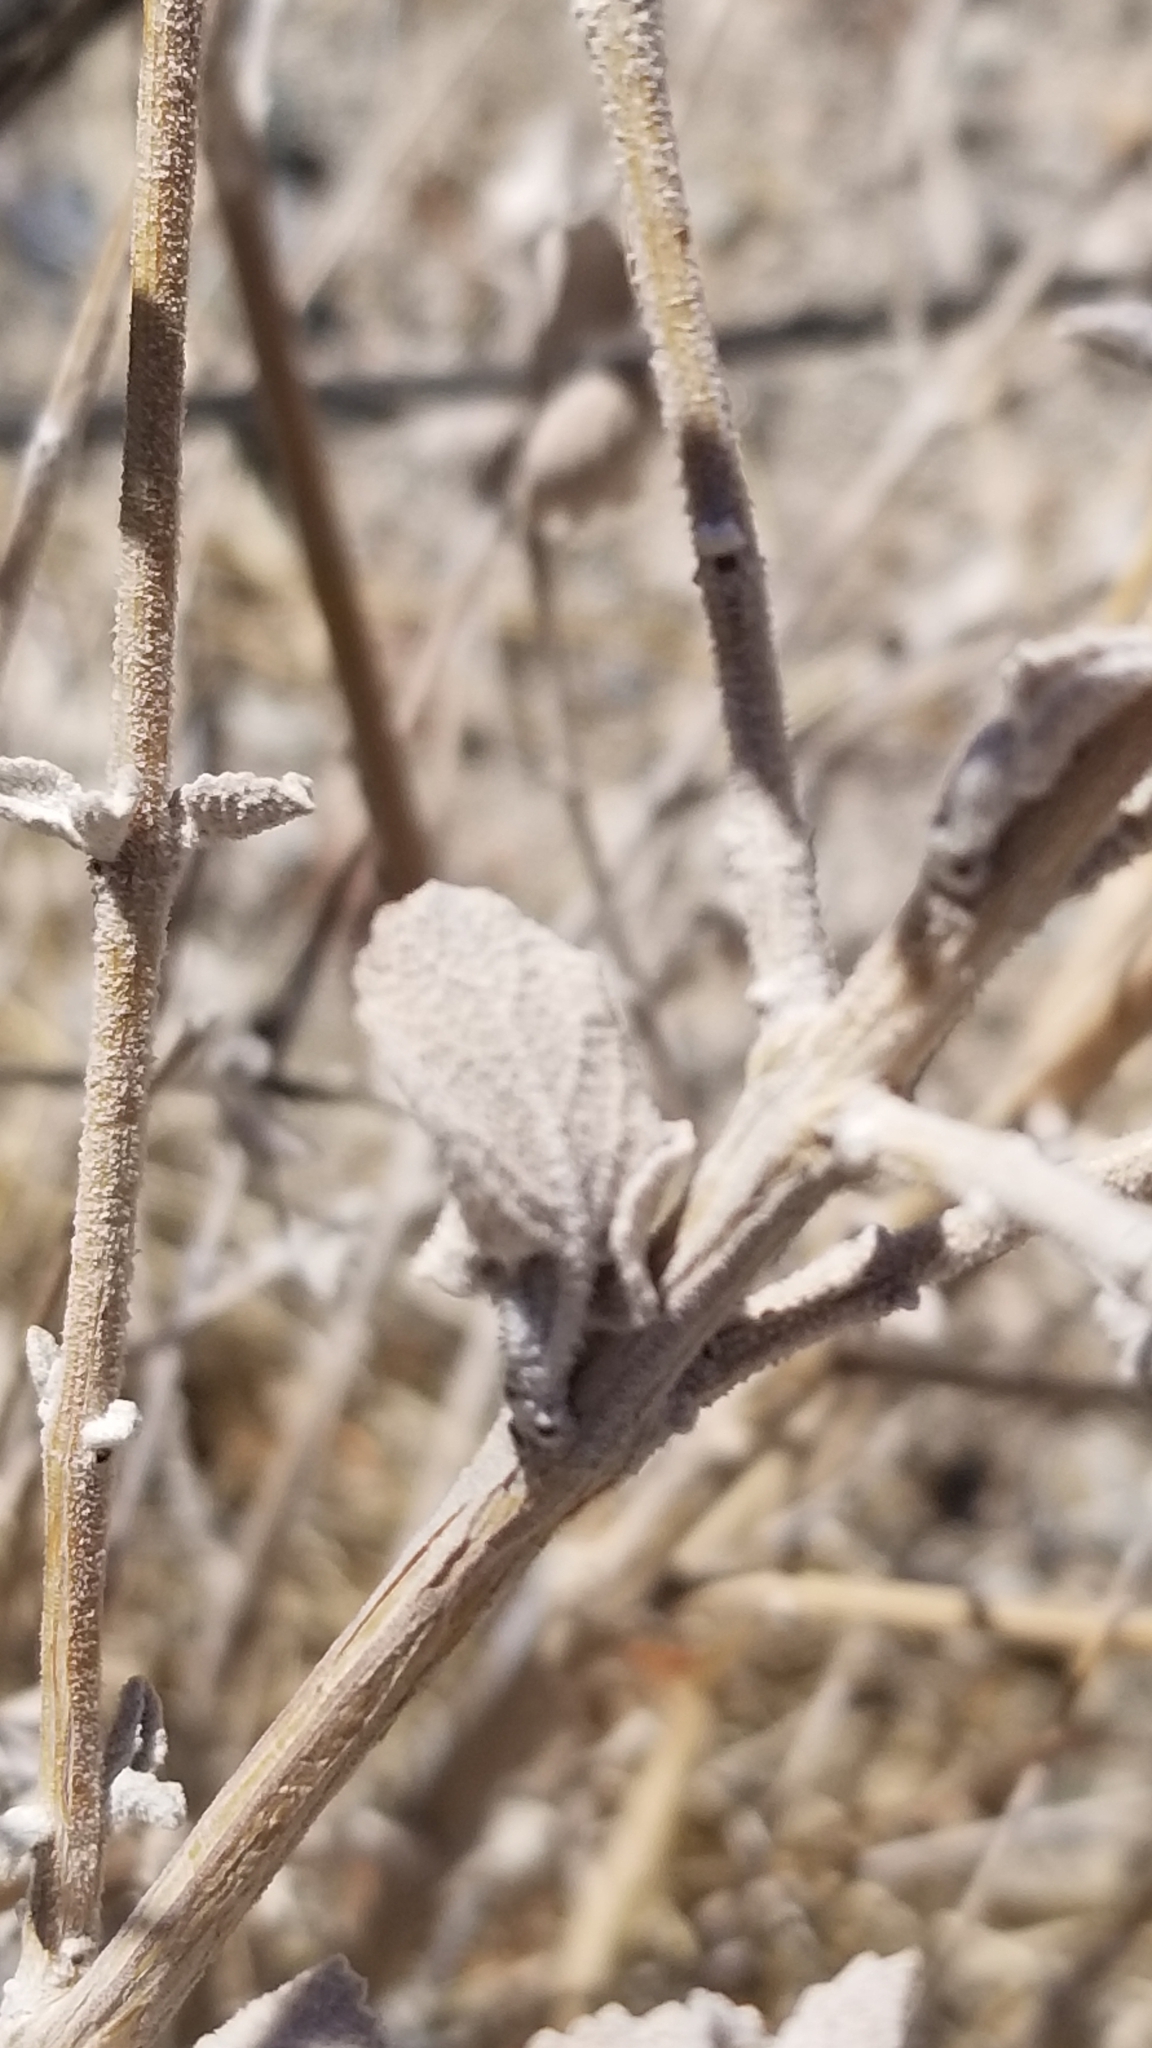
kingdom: Plantae
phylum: Tracheophyta
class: Magnoliopsida
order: Lamiales
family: Lamiaceae
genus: Condea
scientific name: Condea emoryi
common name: Chia
